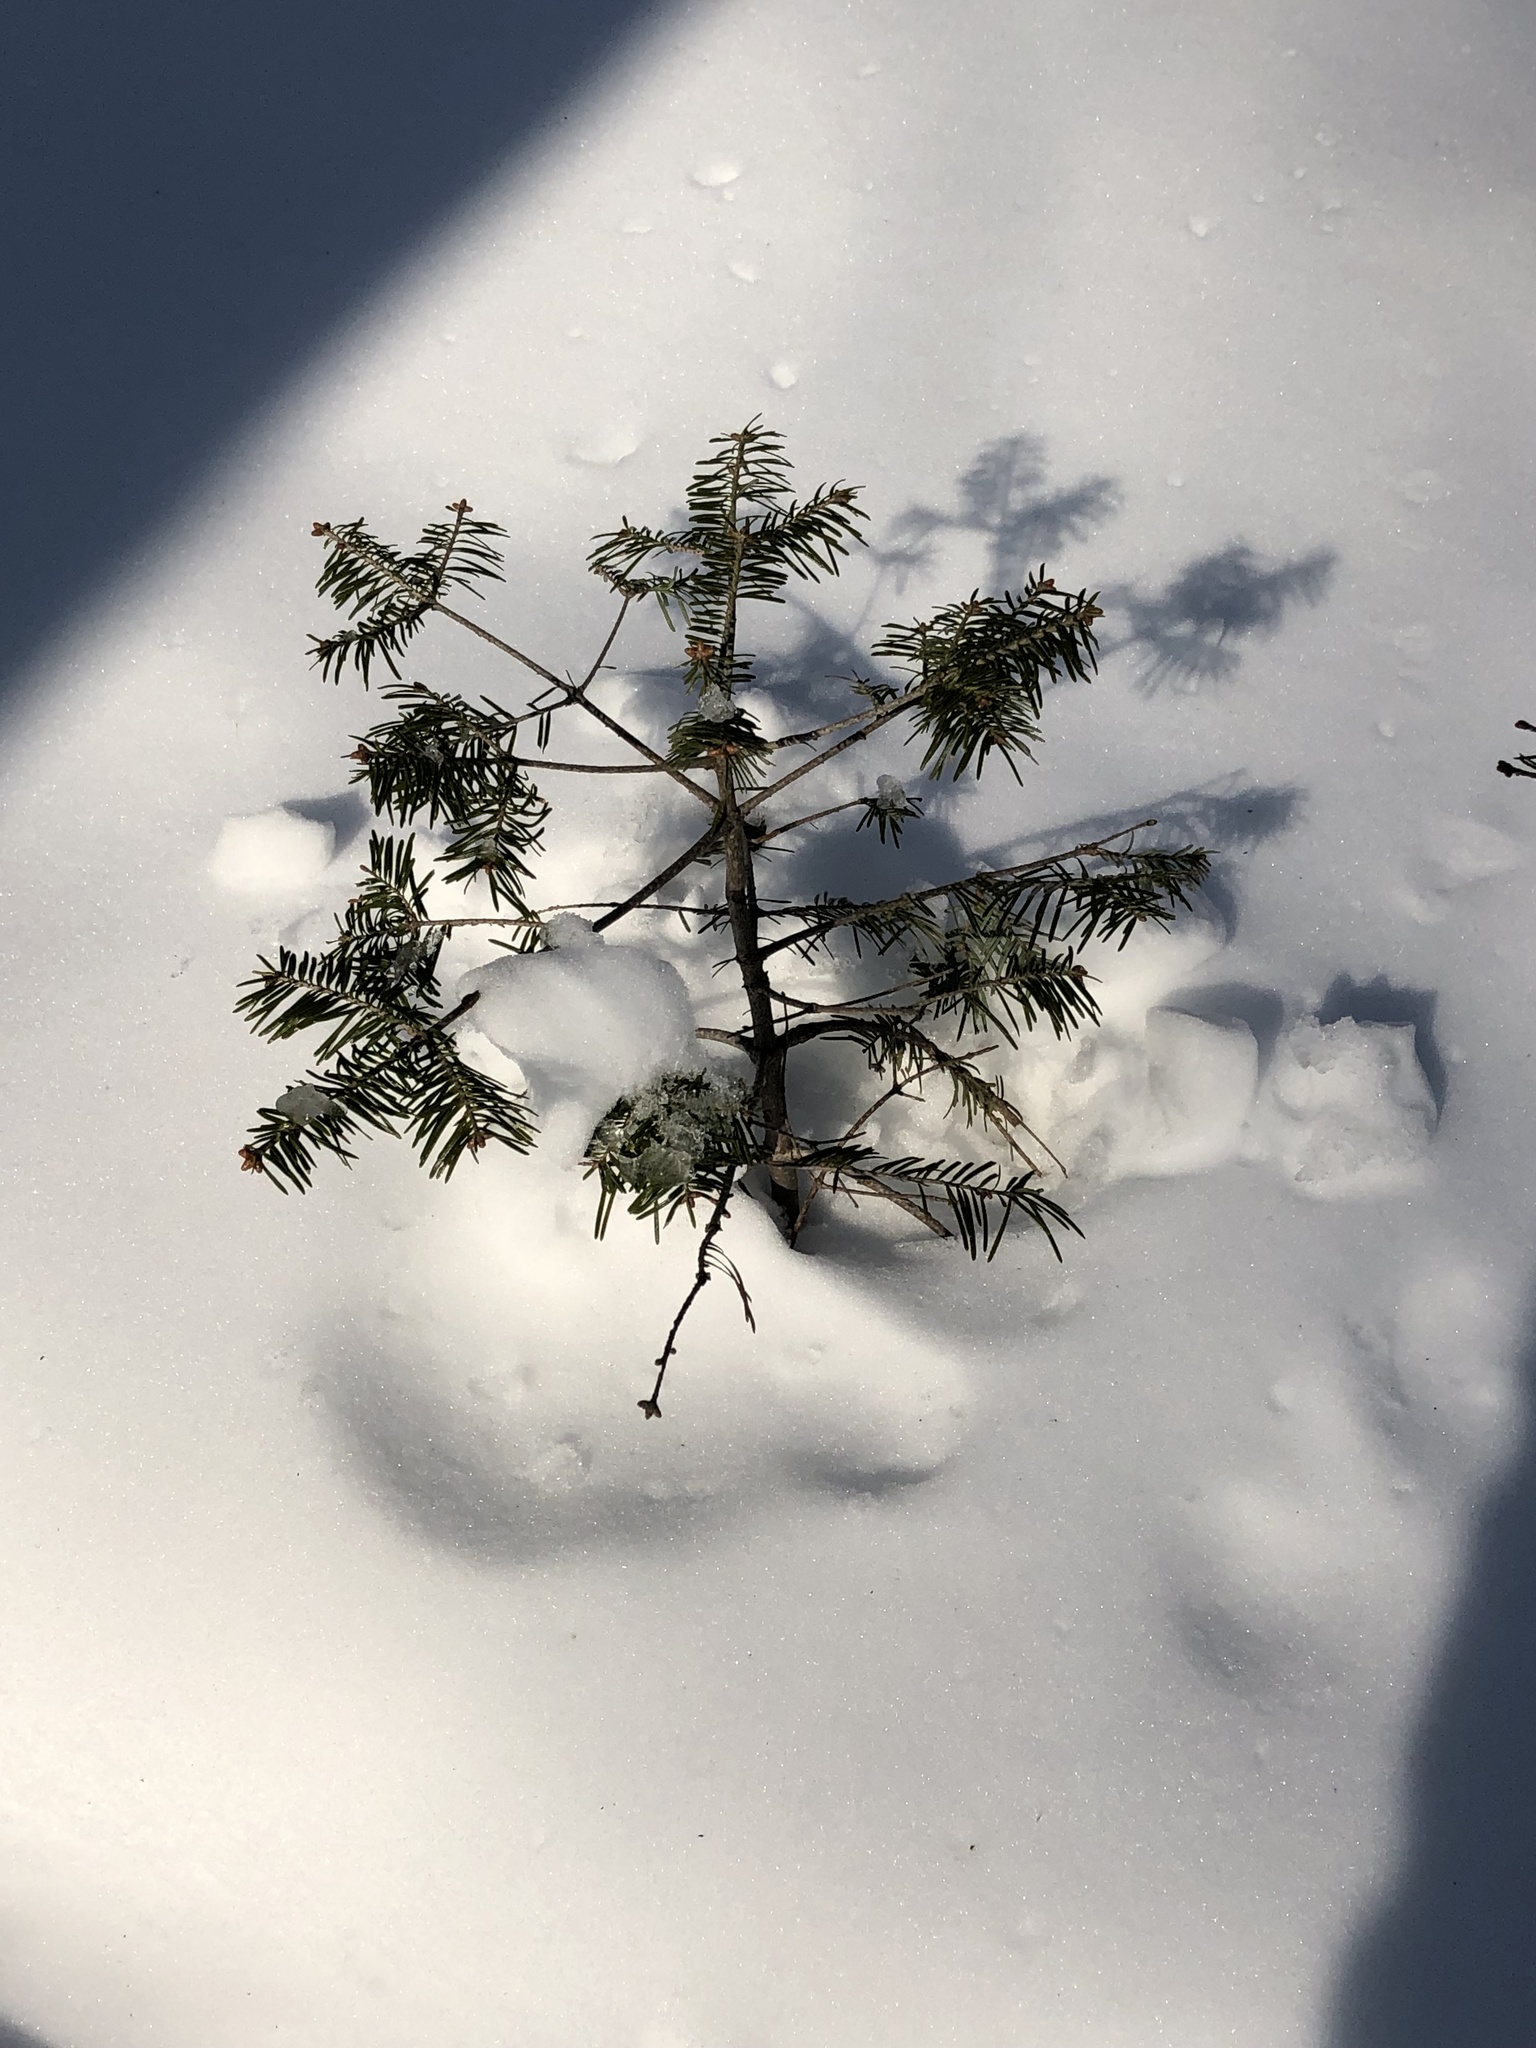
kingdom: Plantae
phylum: Tracheophyta
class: Pinopsida
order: Pinales
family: Pinaceae
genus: Abies
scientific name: Abies balsamea
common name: Balsam fir
